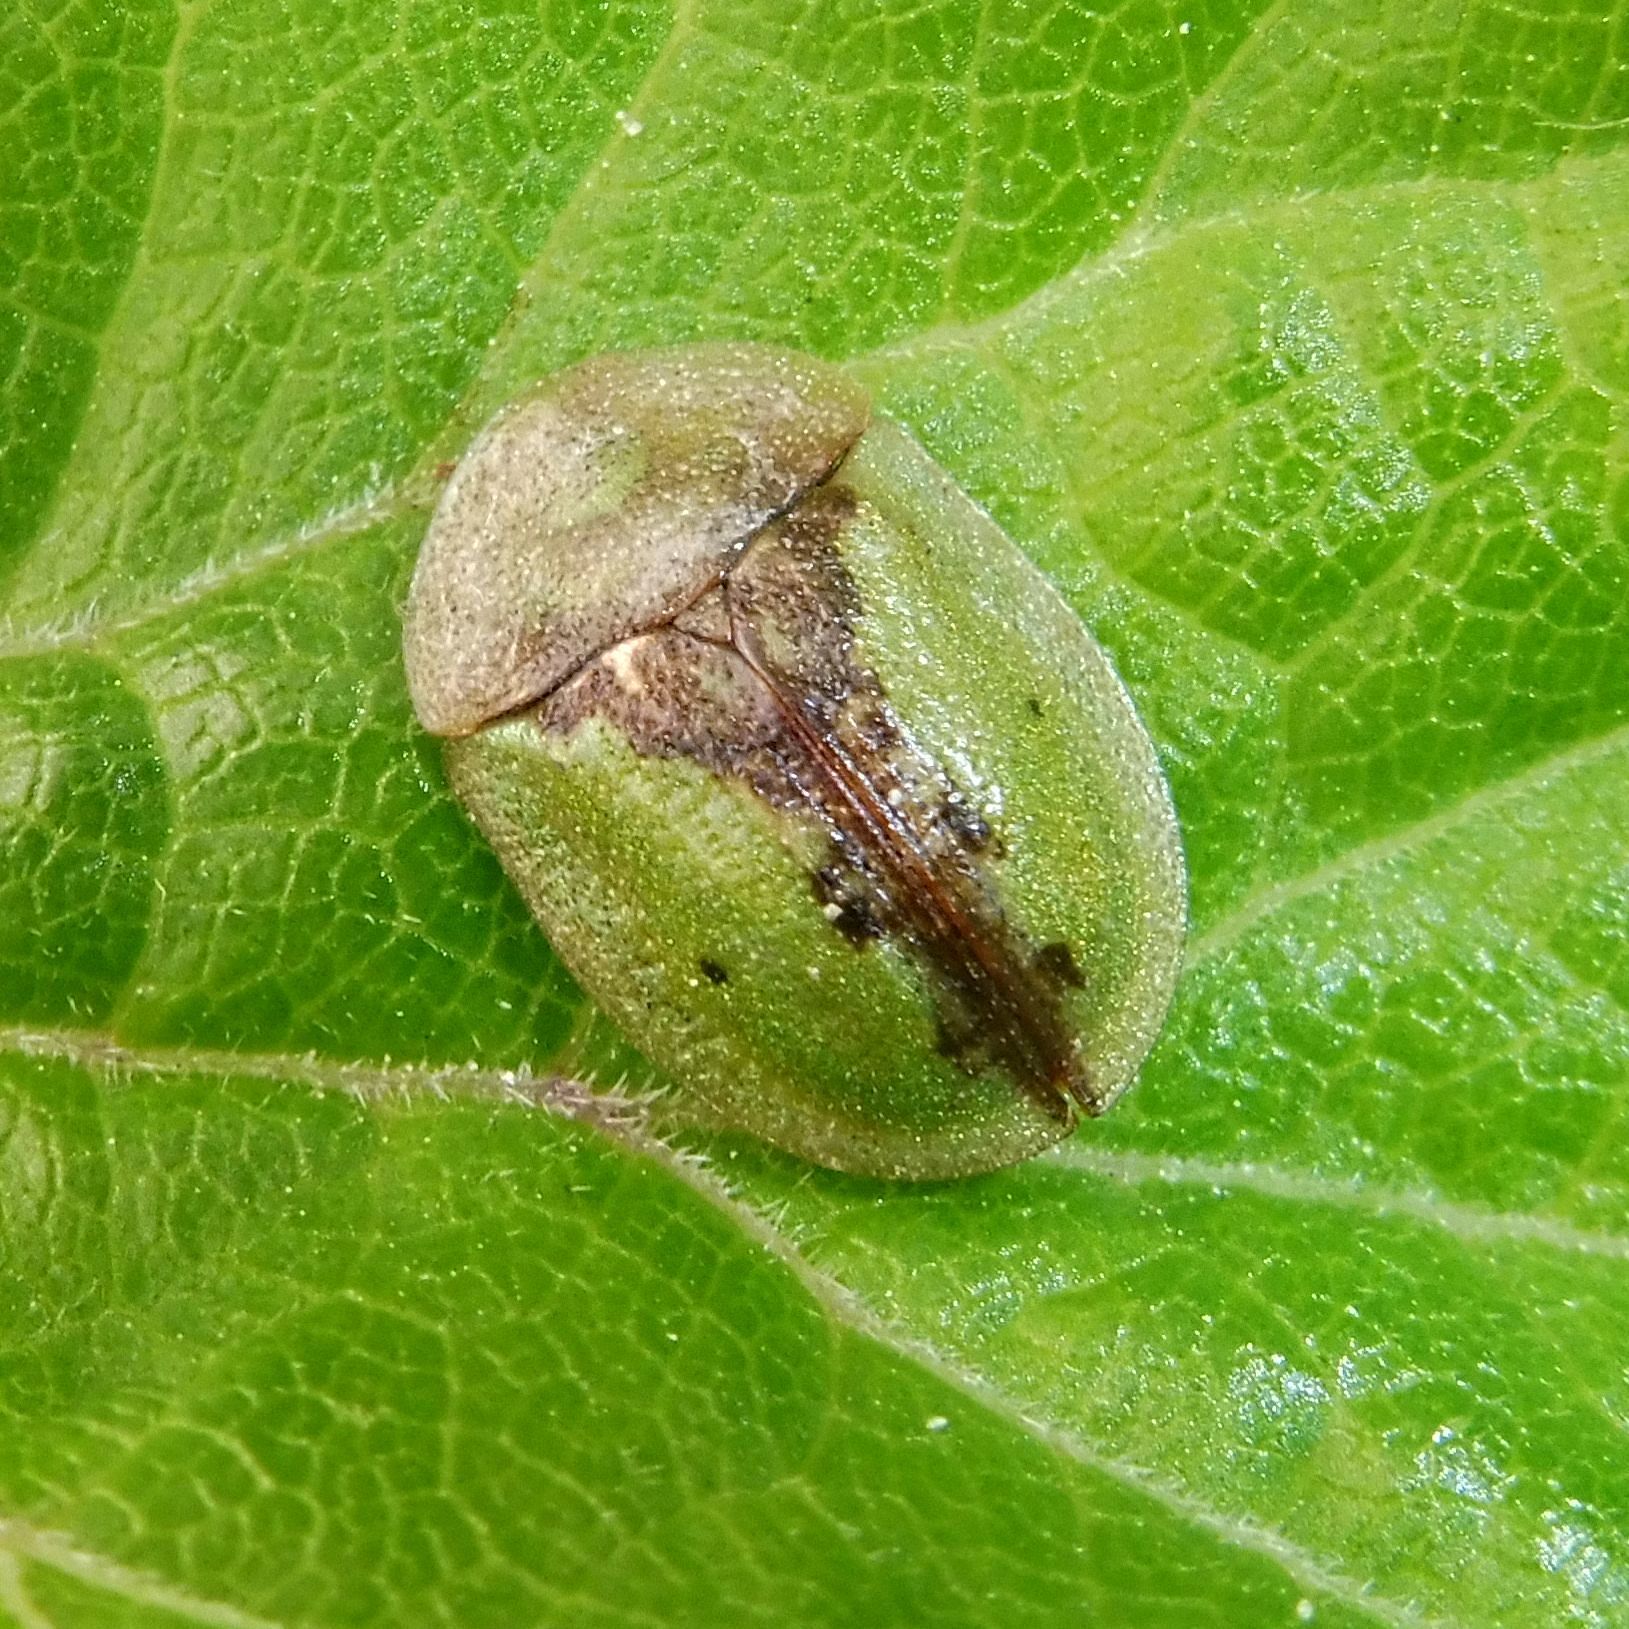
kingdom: Animalia
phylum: Arthropoda
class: Insecta
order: Coleoptera
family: Chrysomelidae
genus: Cassida
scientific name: Cassida vibex
